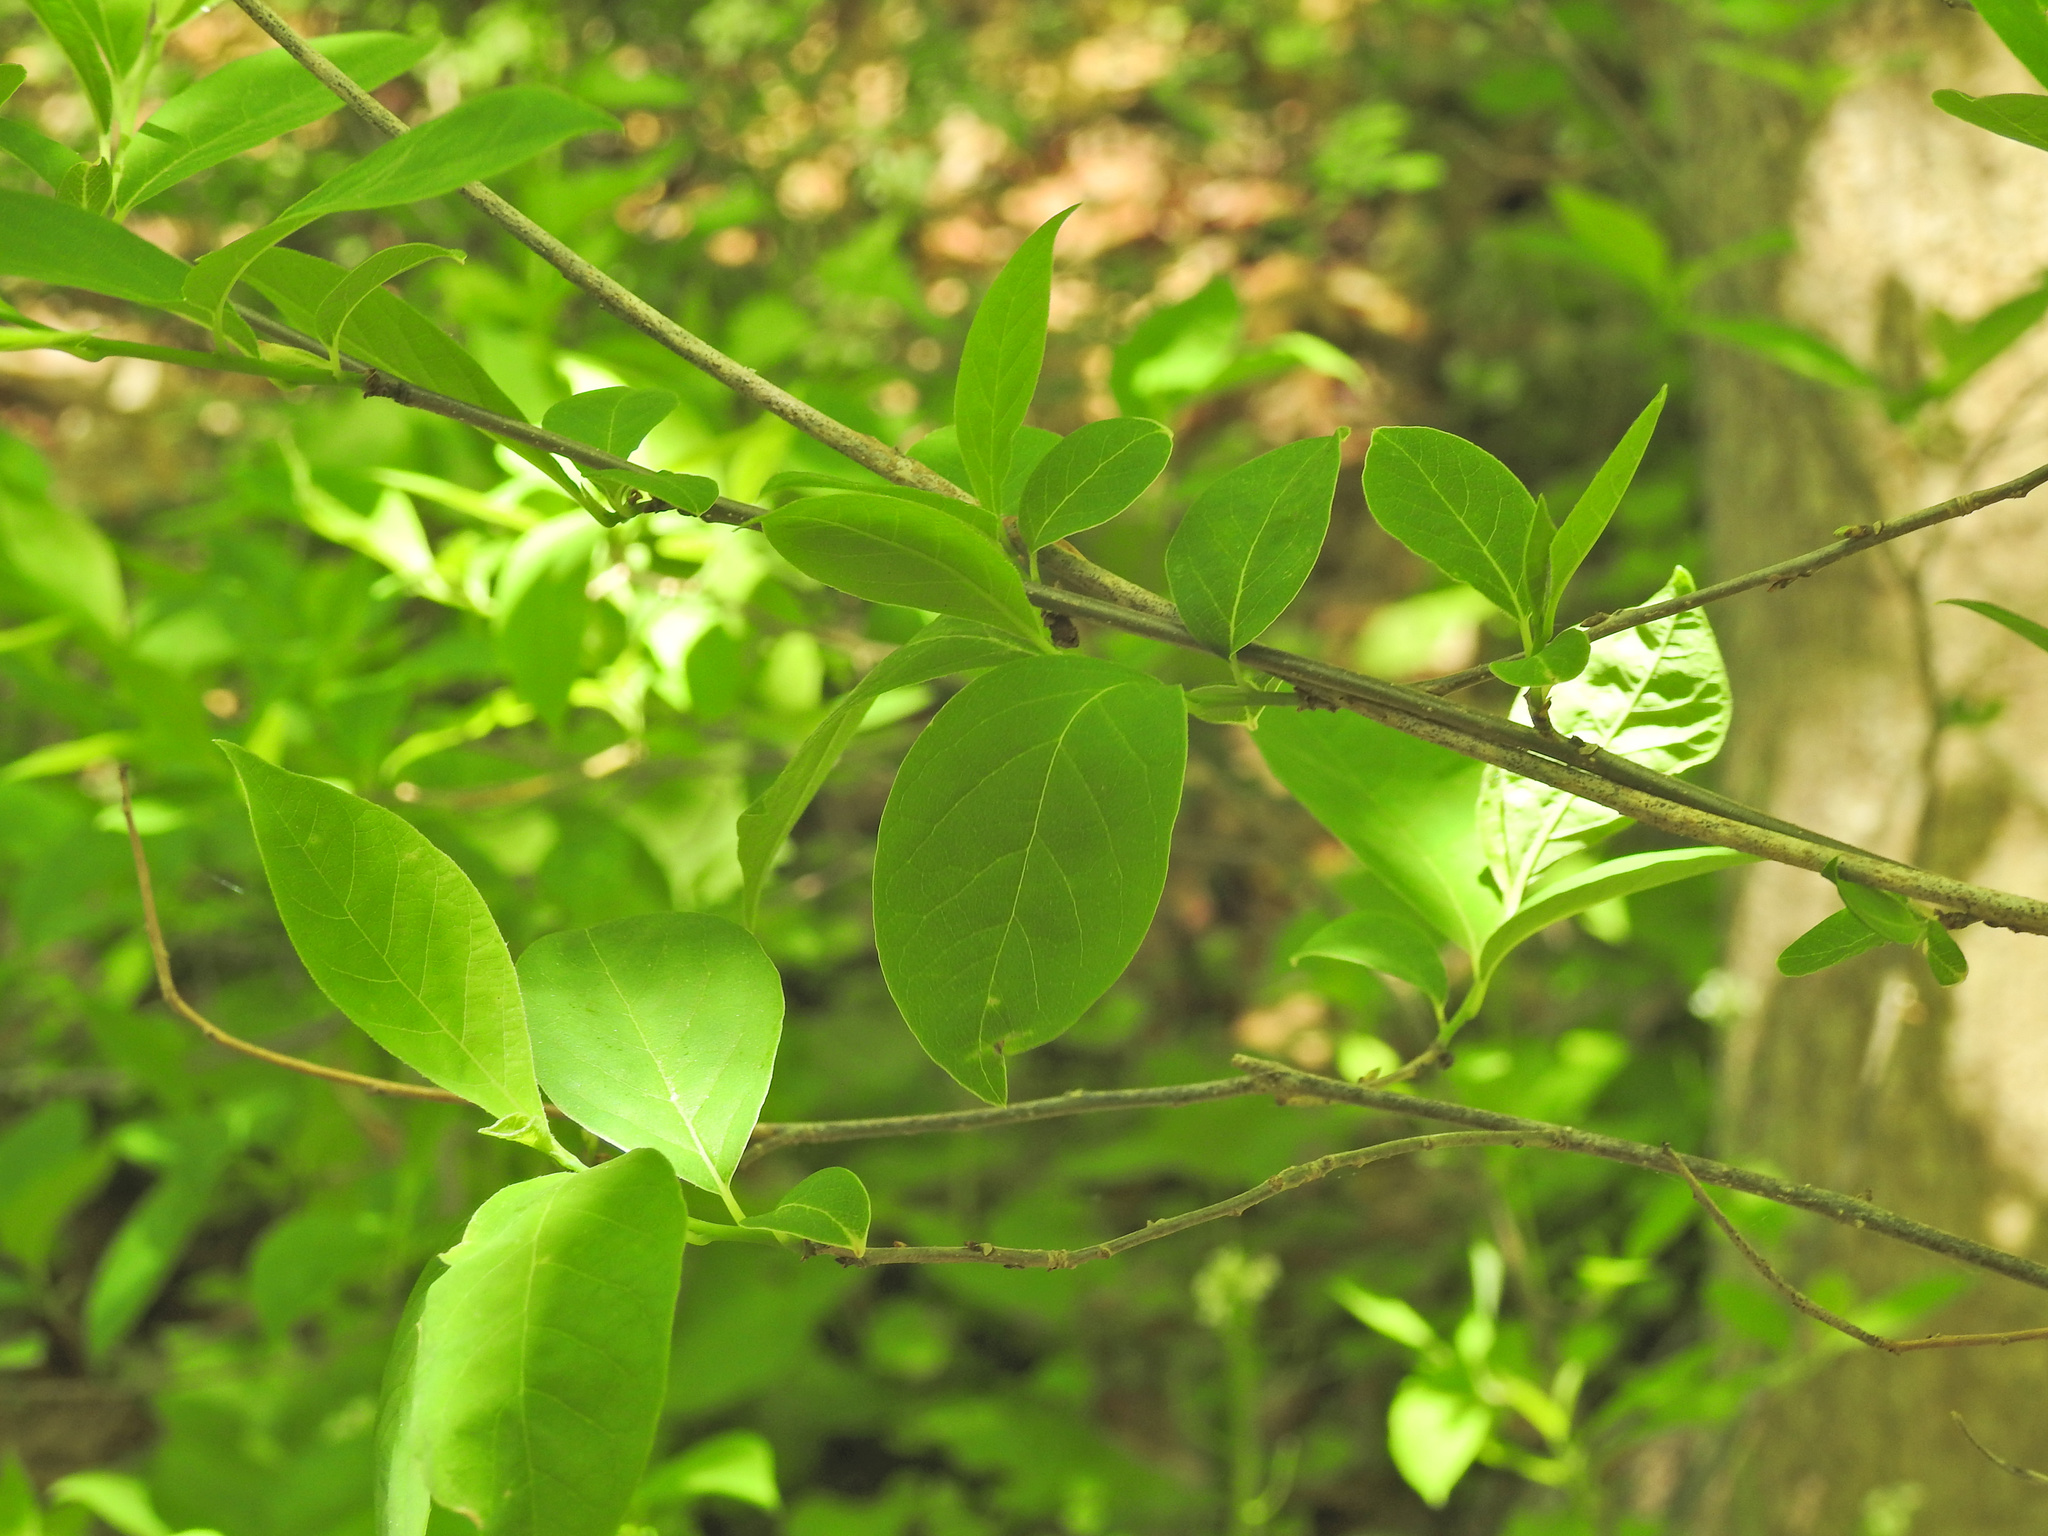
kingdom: Plantae
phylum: Tracheophyta
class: Magnoliopsida
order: Laurales
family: Lauraceae
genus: Lindera
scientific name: Lindera benzoin
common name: Spicebush
